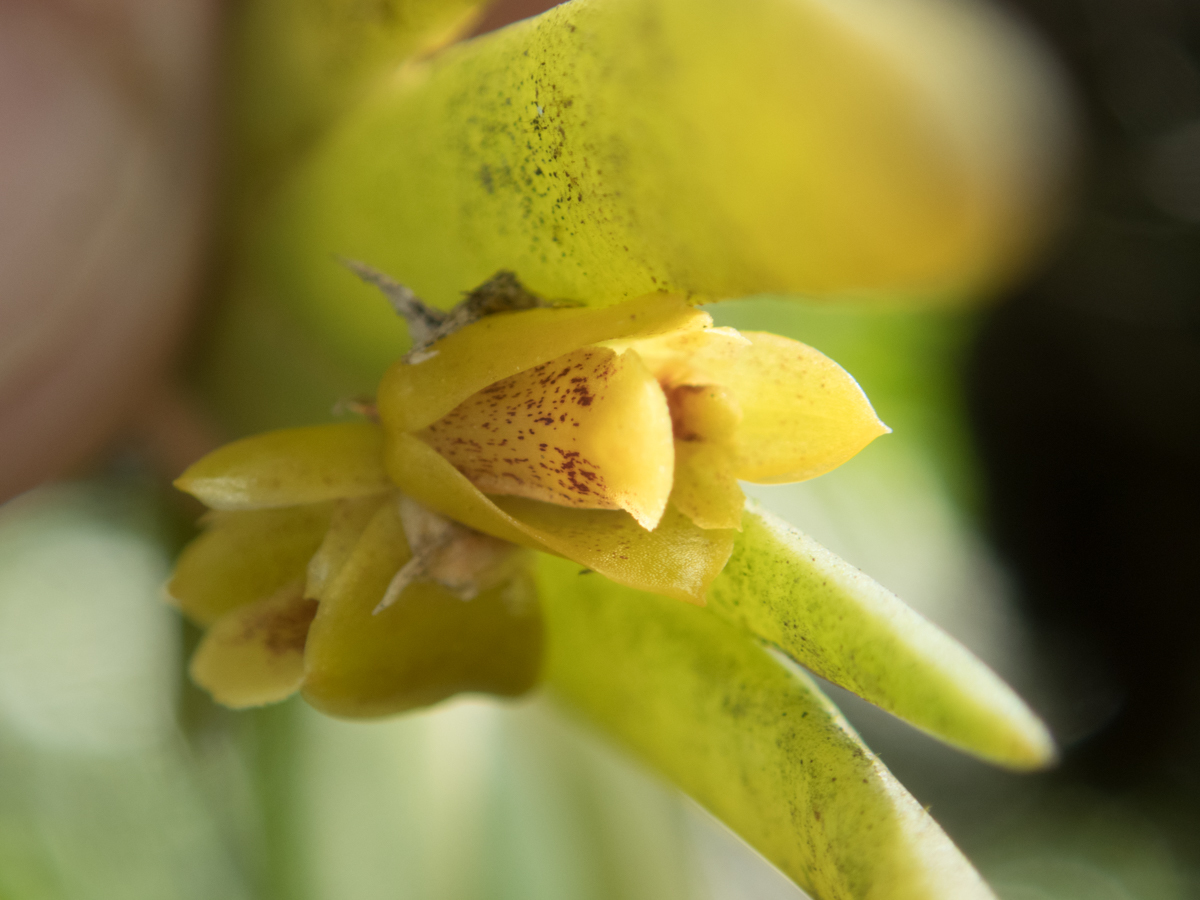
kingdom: Plantae
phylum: Tracheophyta
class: Liliopsida
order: Asparagales
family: Orchidaceae
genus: Oxystophyllum
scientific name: Oxystophyllum carnosum
